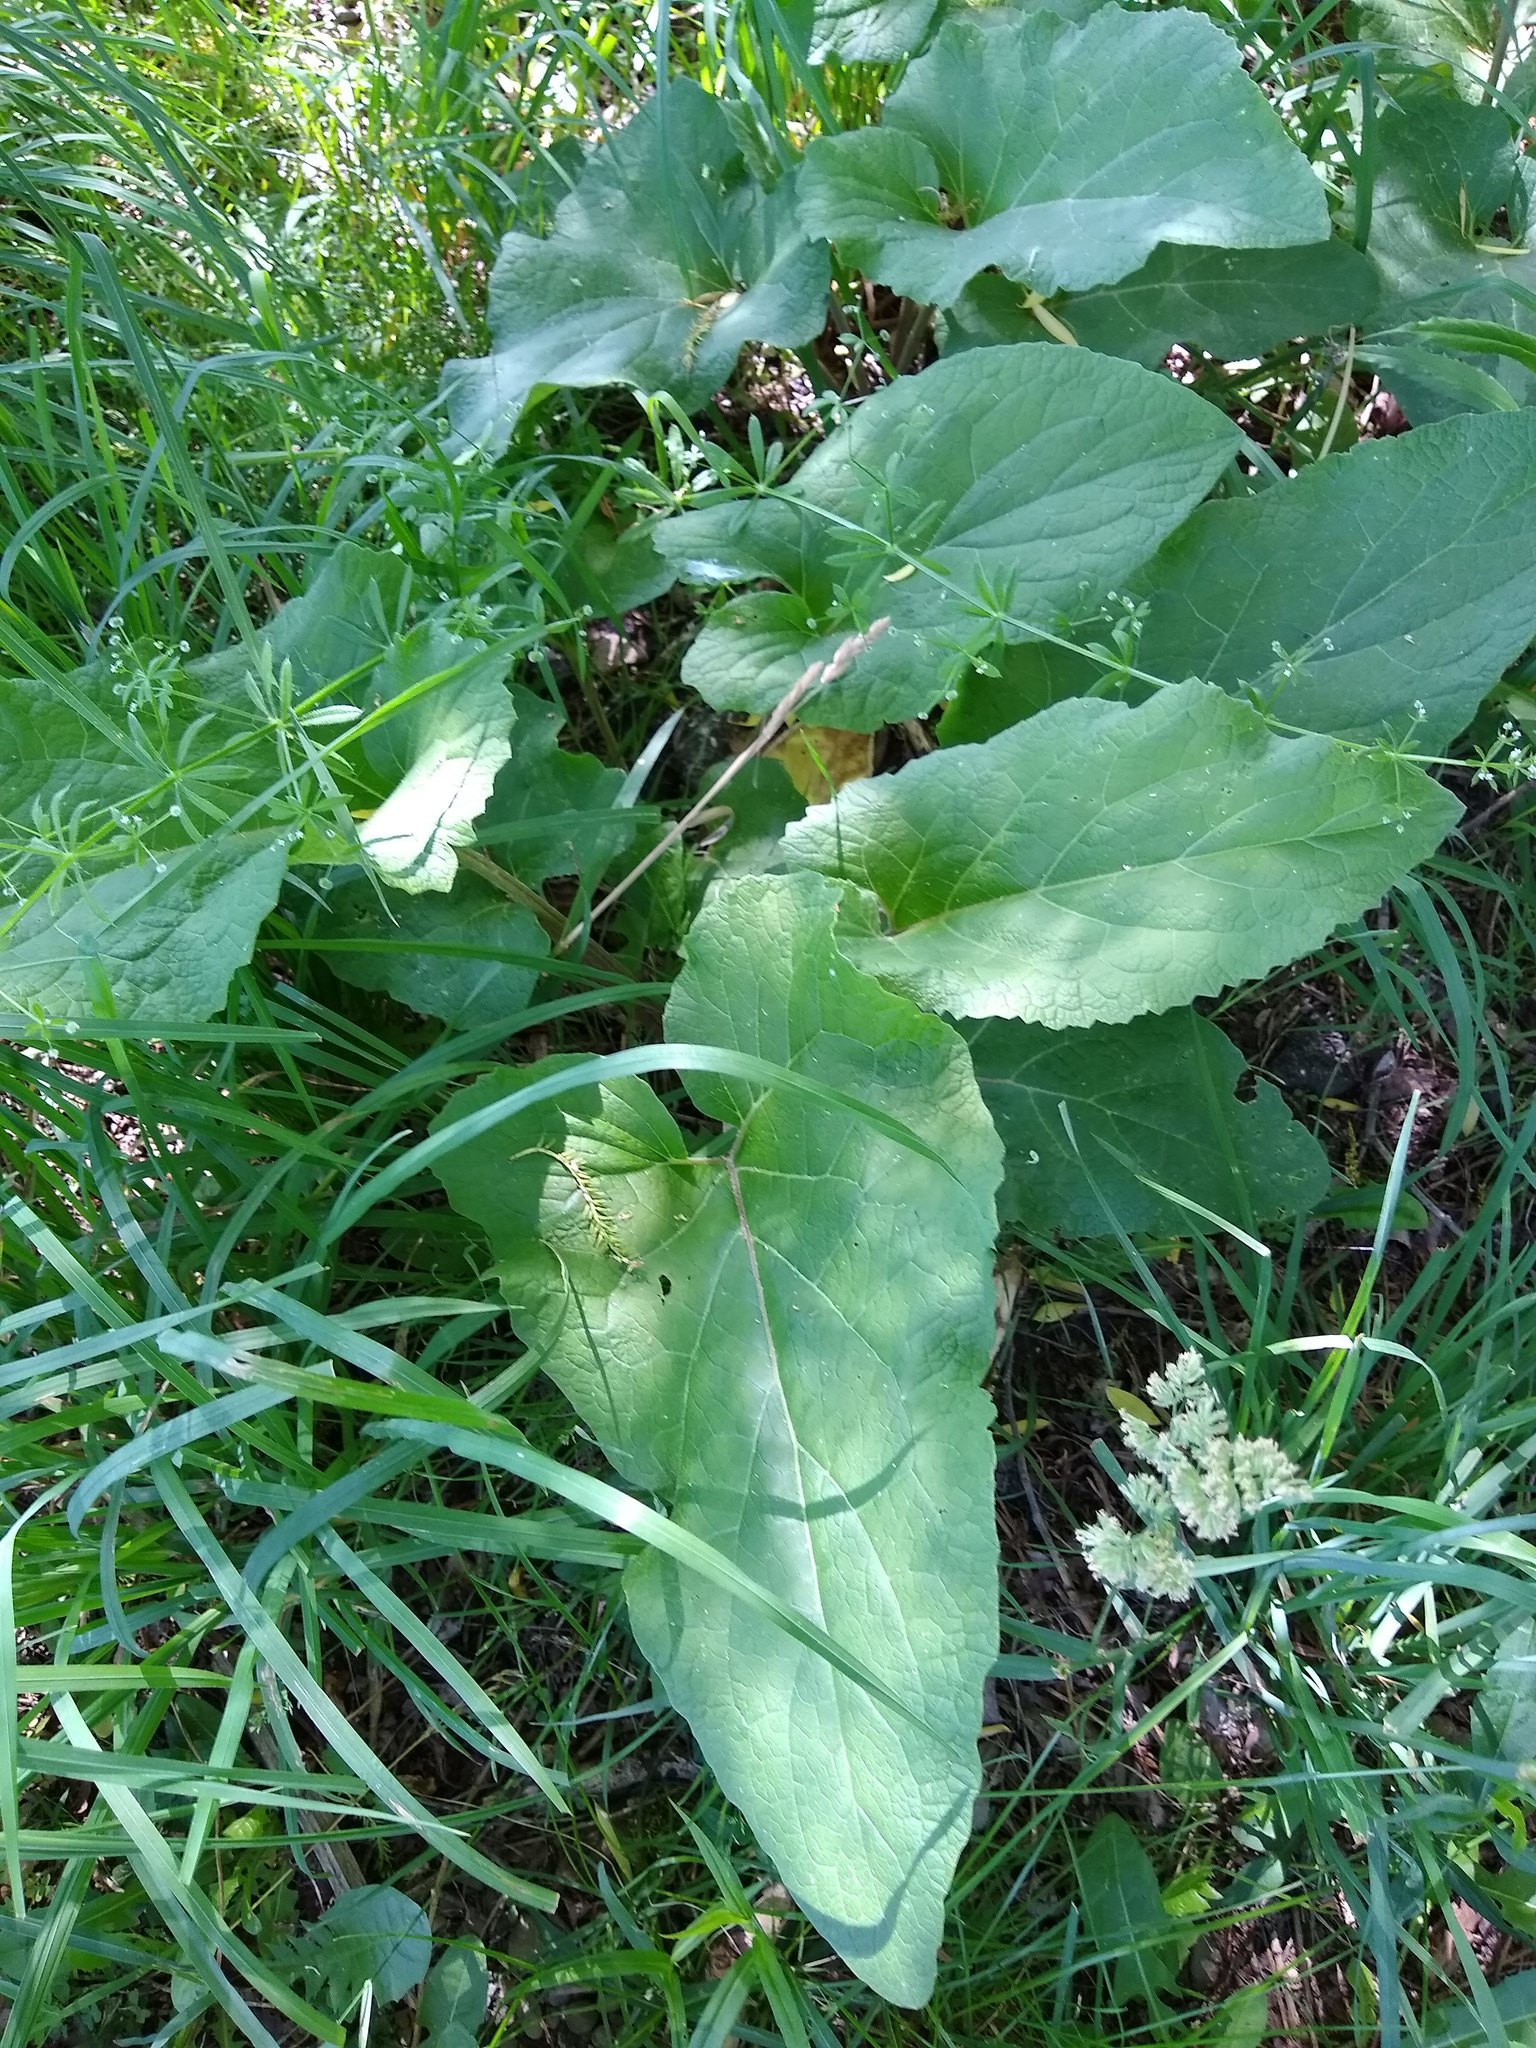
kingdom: Plantae
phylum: Tracheophyta
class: Magnoliopsida
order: Asterales
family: Asteraceae
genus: Arctium
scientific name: Arctium
